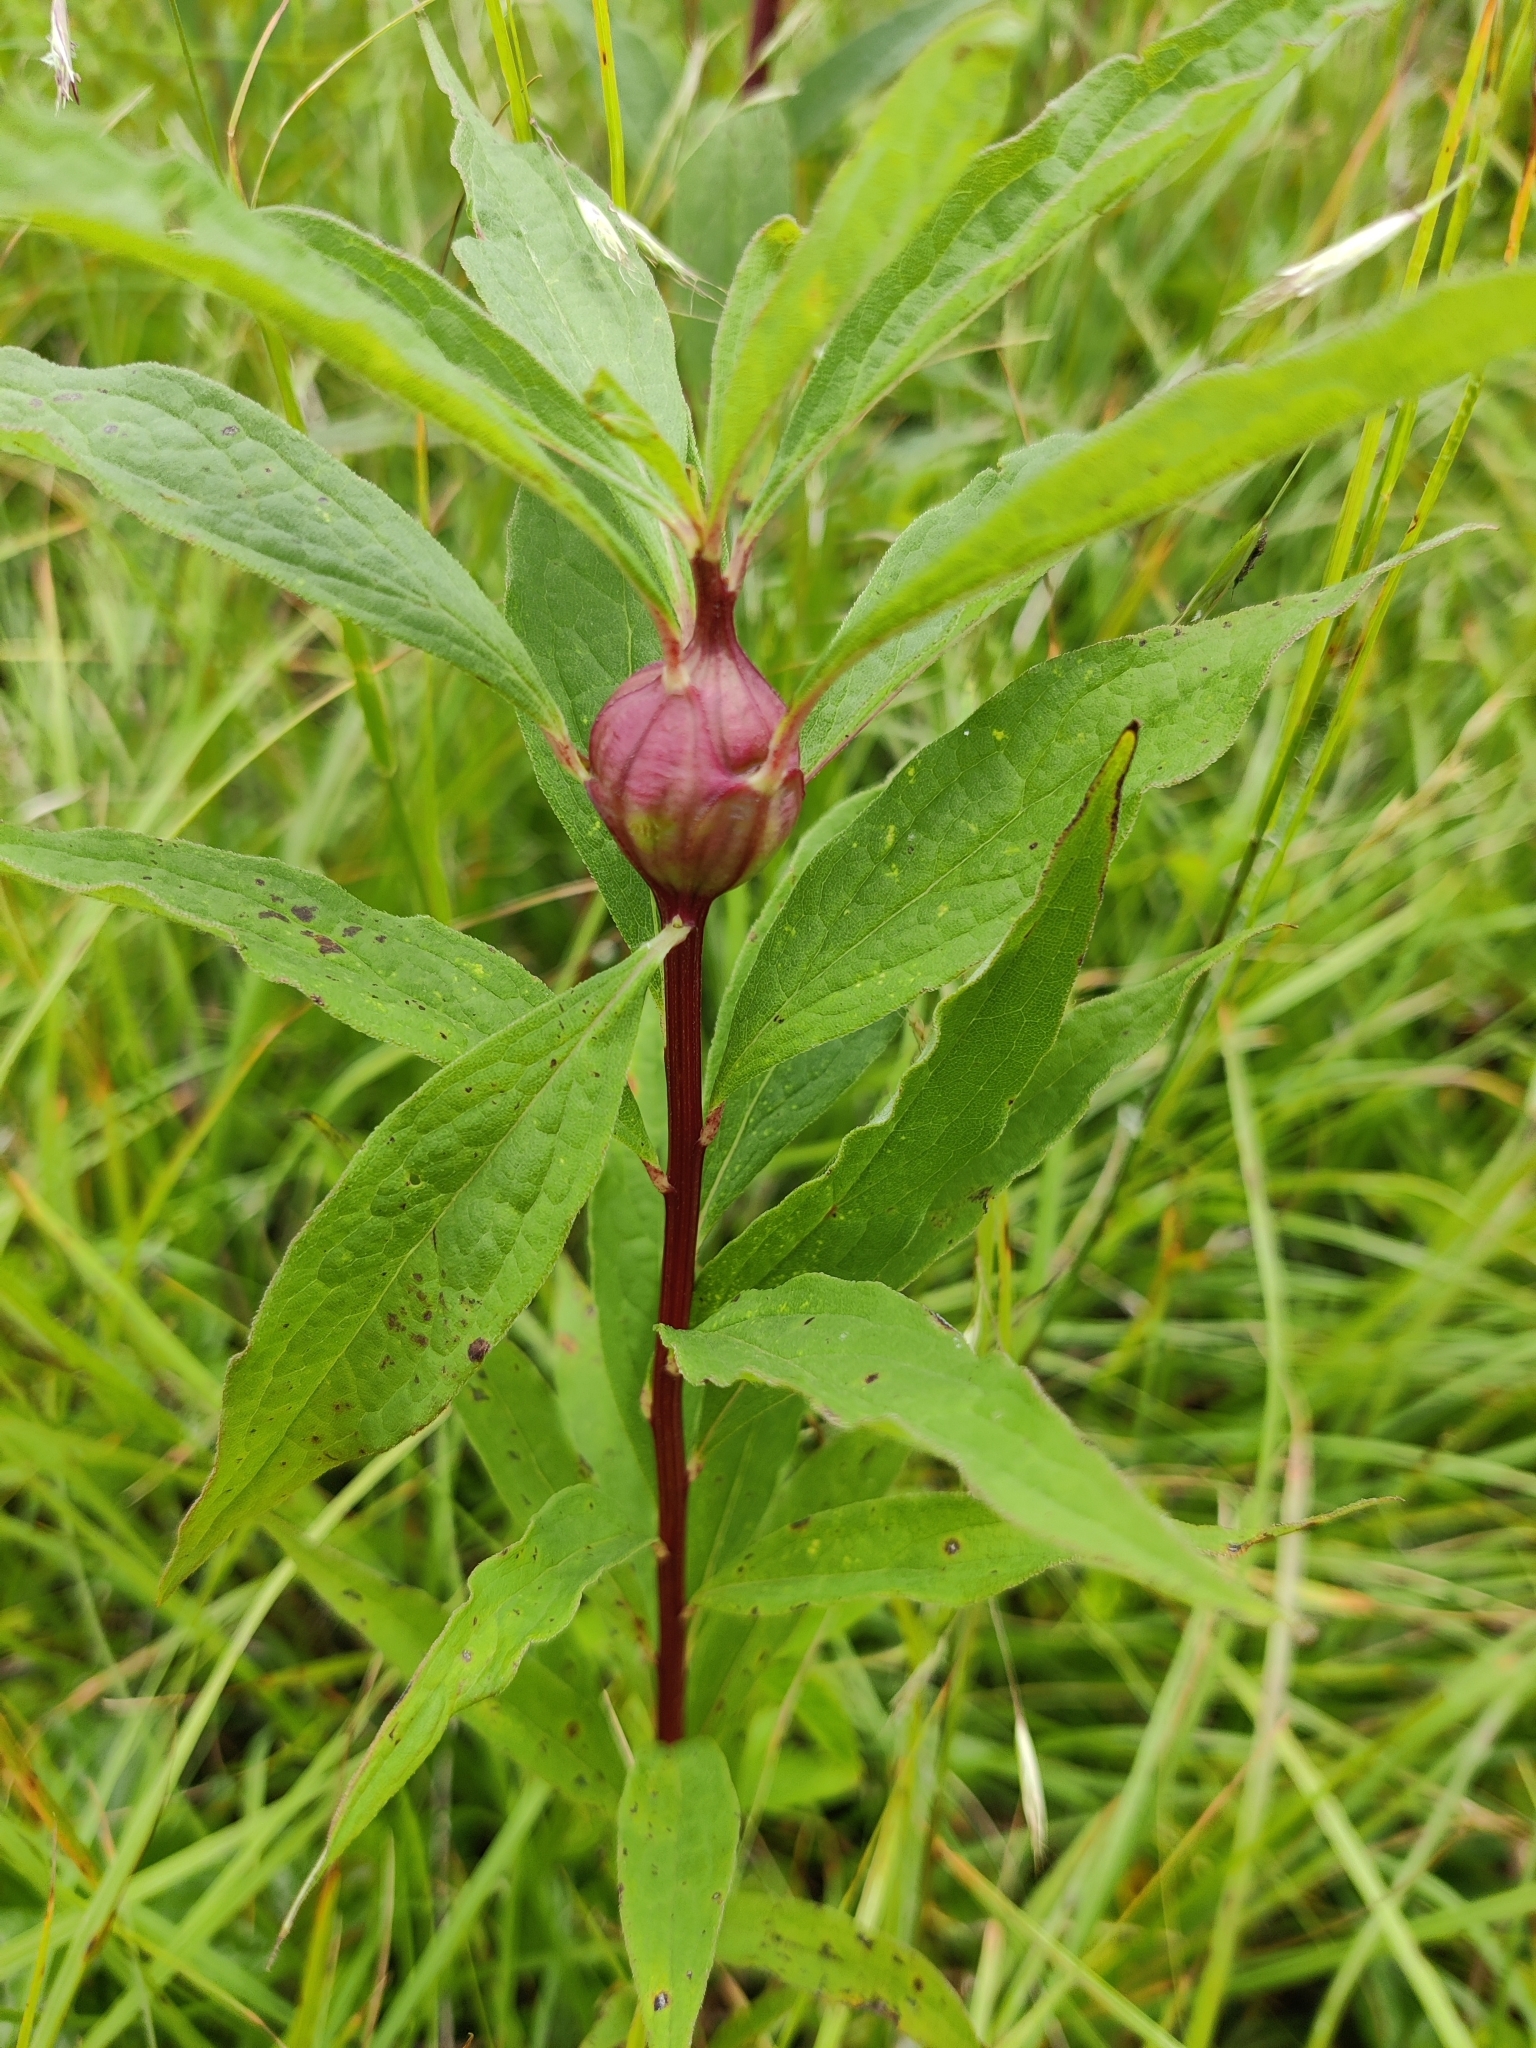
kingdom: Animalia
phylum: Arthropoda
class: Insecta
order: Diptera
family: Tephritidae
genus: Eurosta
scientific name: Eurosta solidaginis
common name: Goldenrod gall fly
